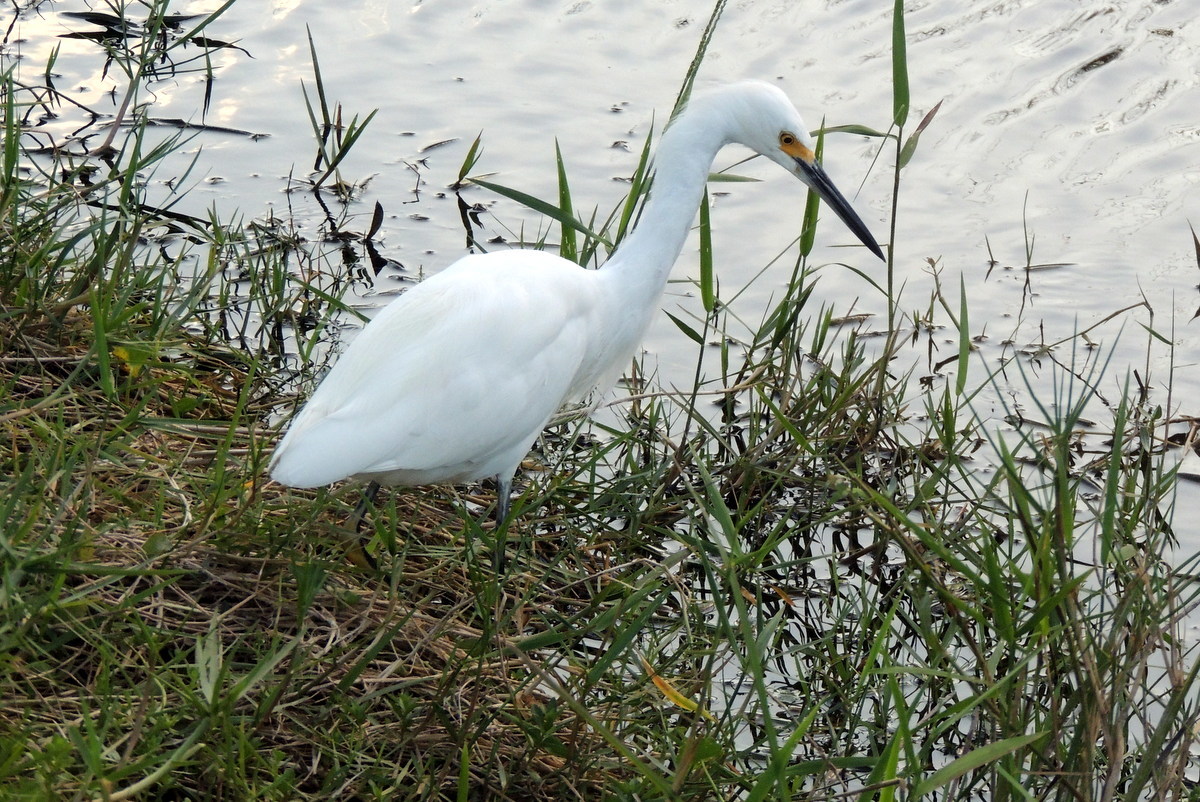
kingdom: Animalia
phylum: Chordata
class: Aves
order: Pelecaniformes
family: Ardeidae
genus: Egretta
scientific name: Egretta thula
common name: Snowy egret
